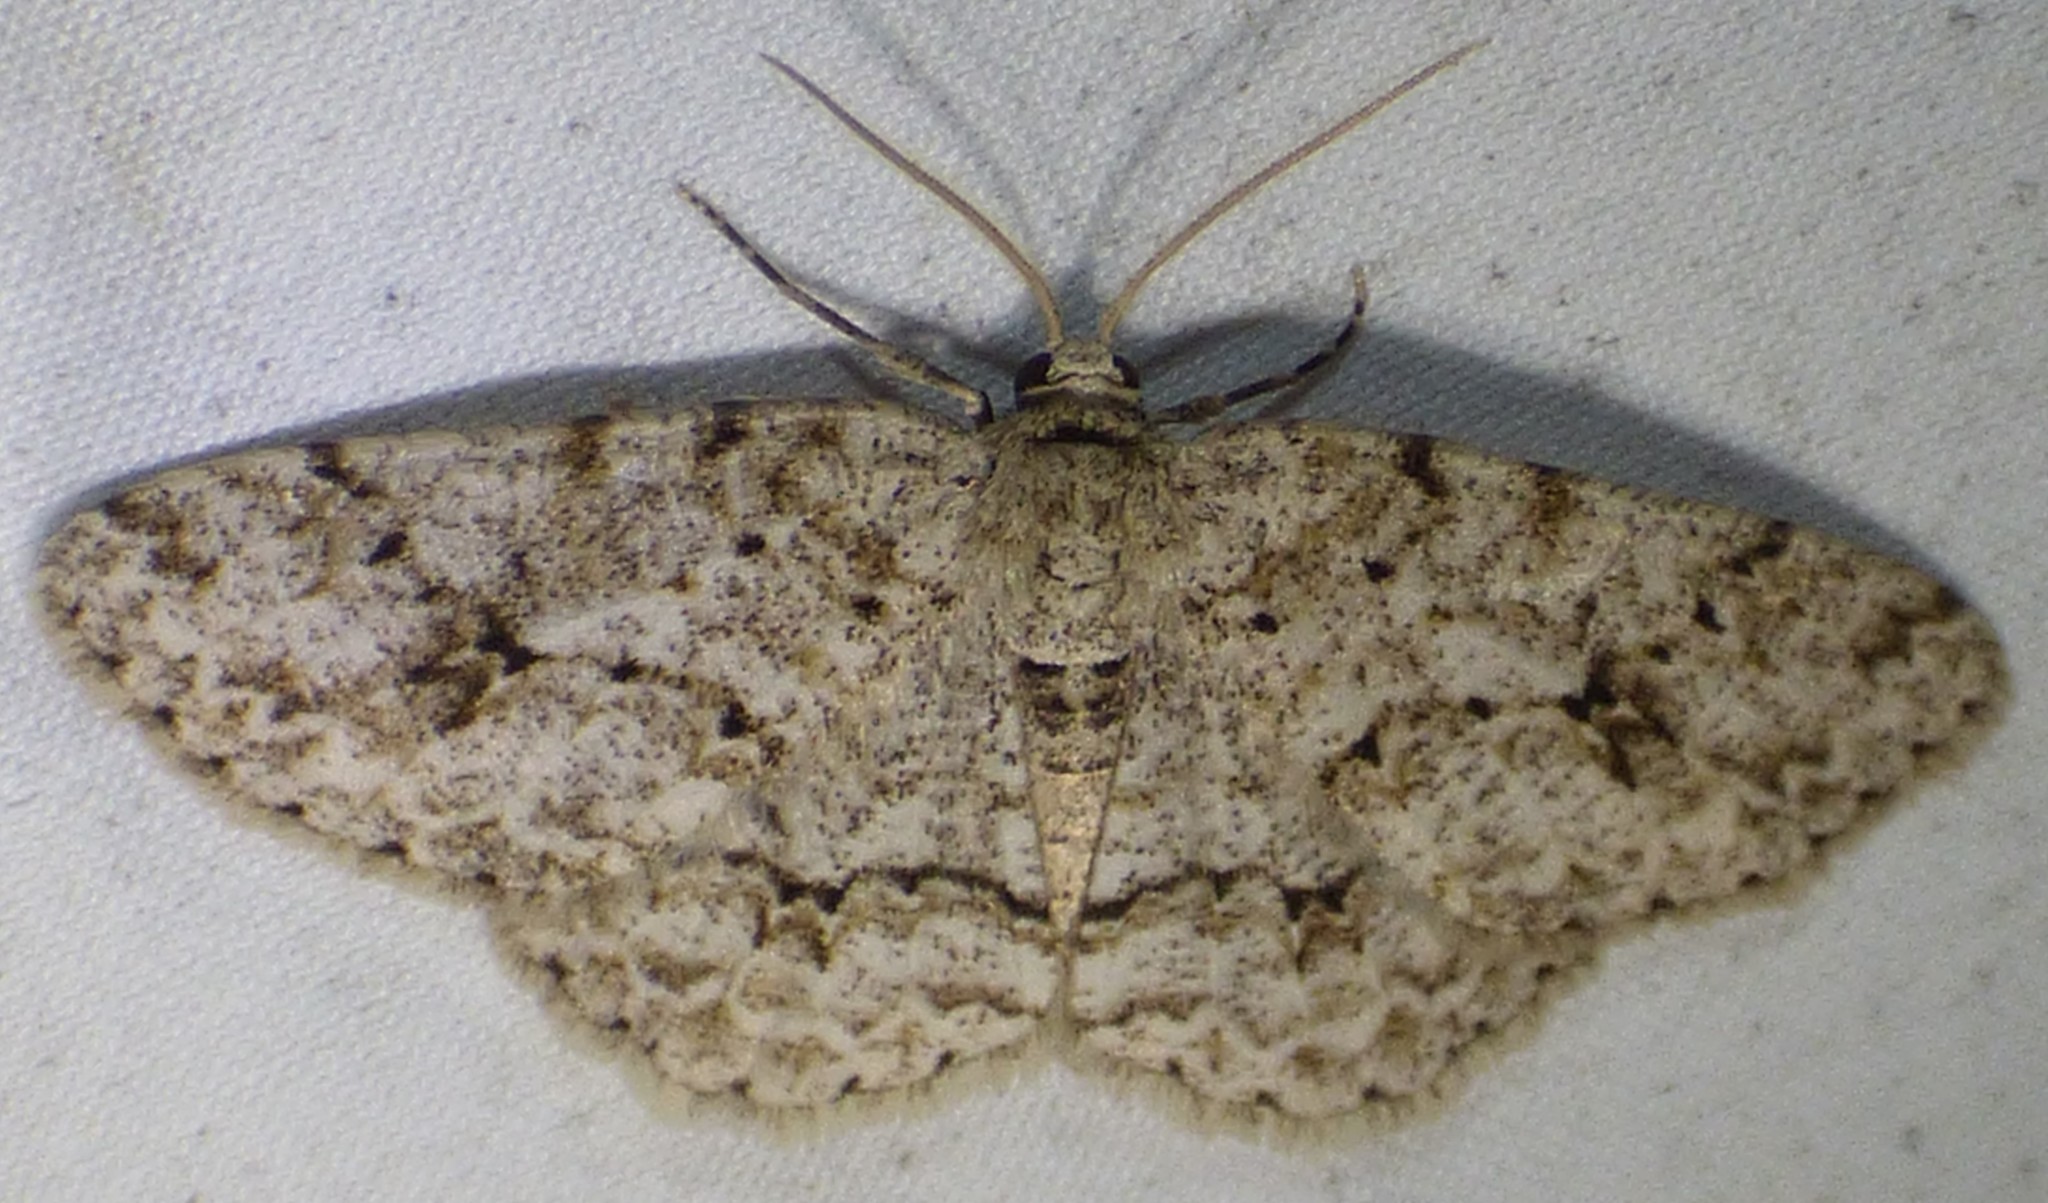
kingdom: Animalia
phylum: Arthropoda
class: Insecta
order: Lepidoptera
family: Geometridae
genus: Ectropis
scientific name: Ectropis crepuscularia
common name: Engrailed
